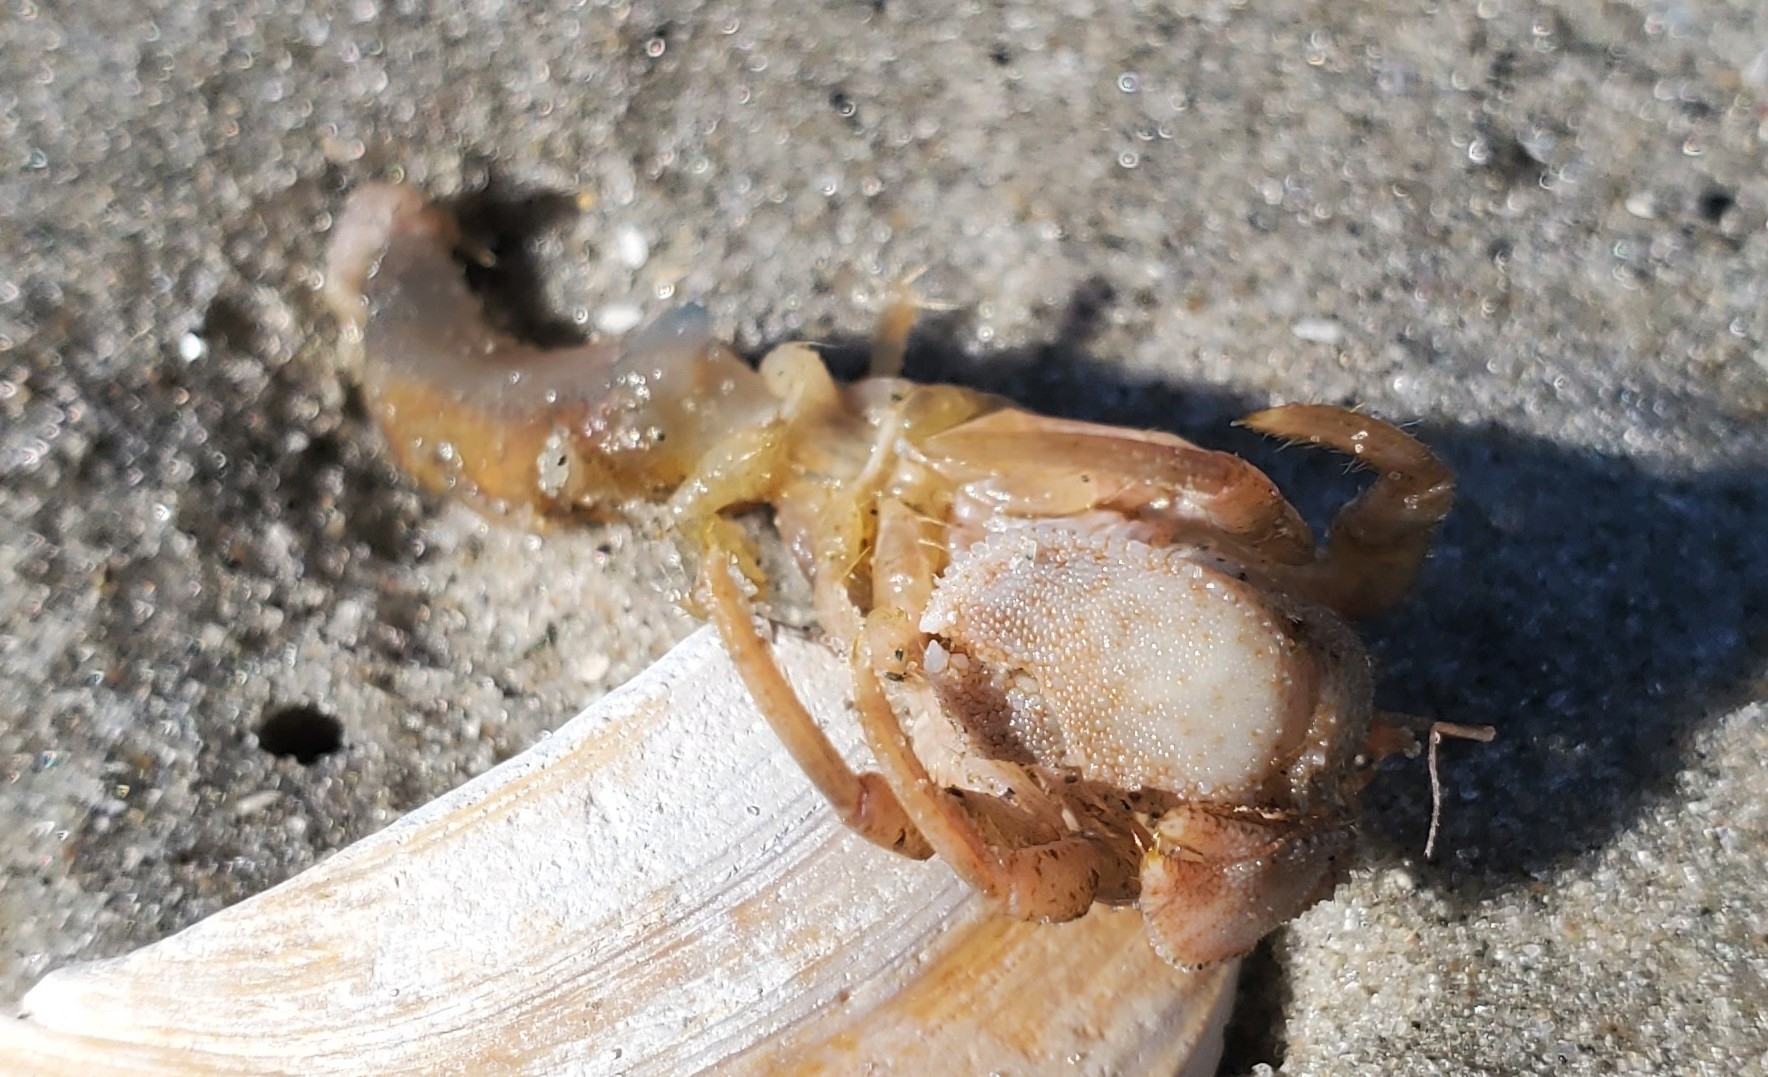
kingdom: Animalia
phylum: Arthropoda
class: Malacostraca
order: Decapoda
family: Paguridae
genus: Pagurus
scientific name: Pagurus pollicaris
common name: Flatclaw hermit
